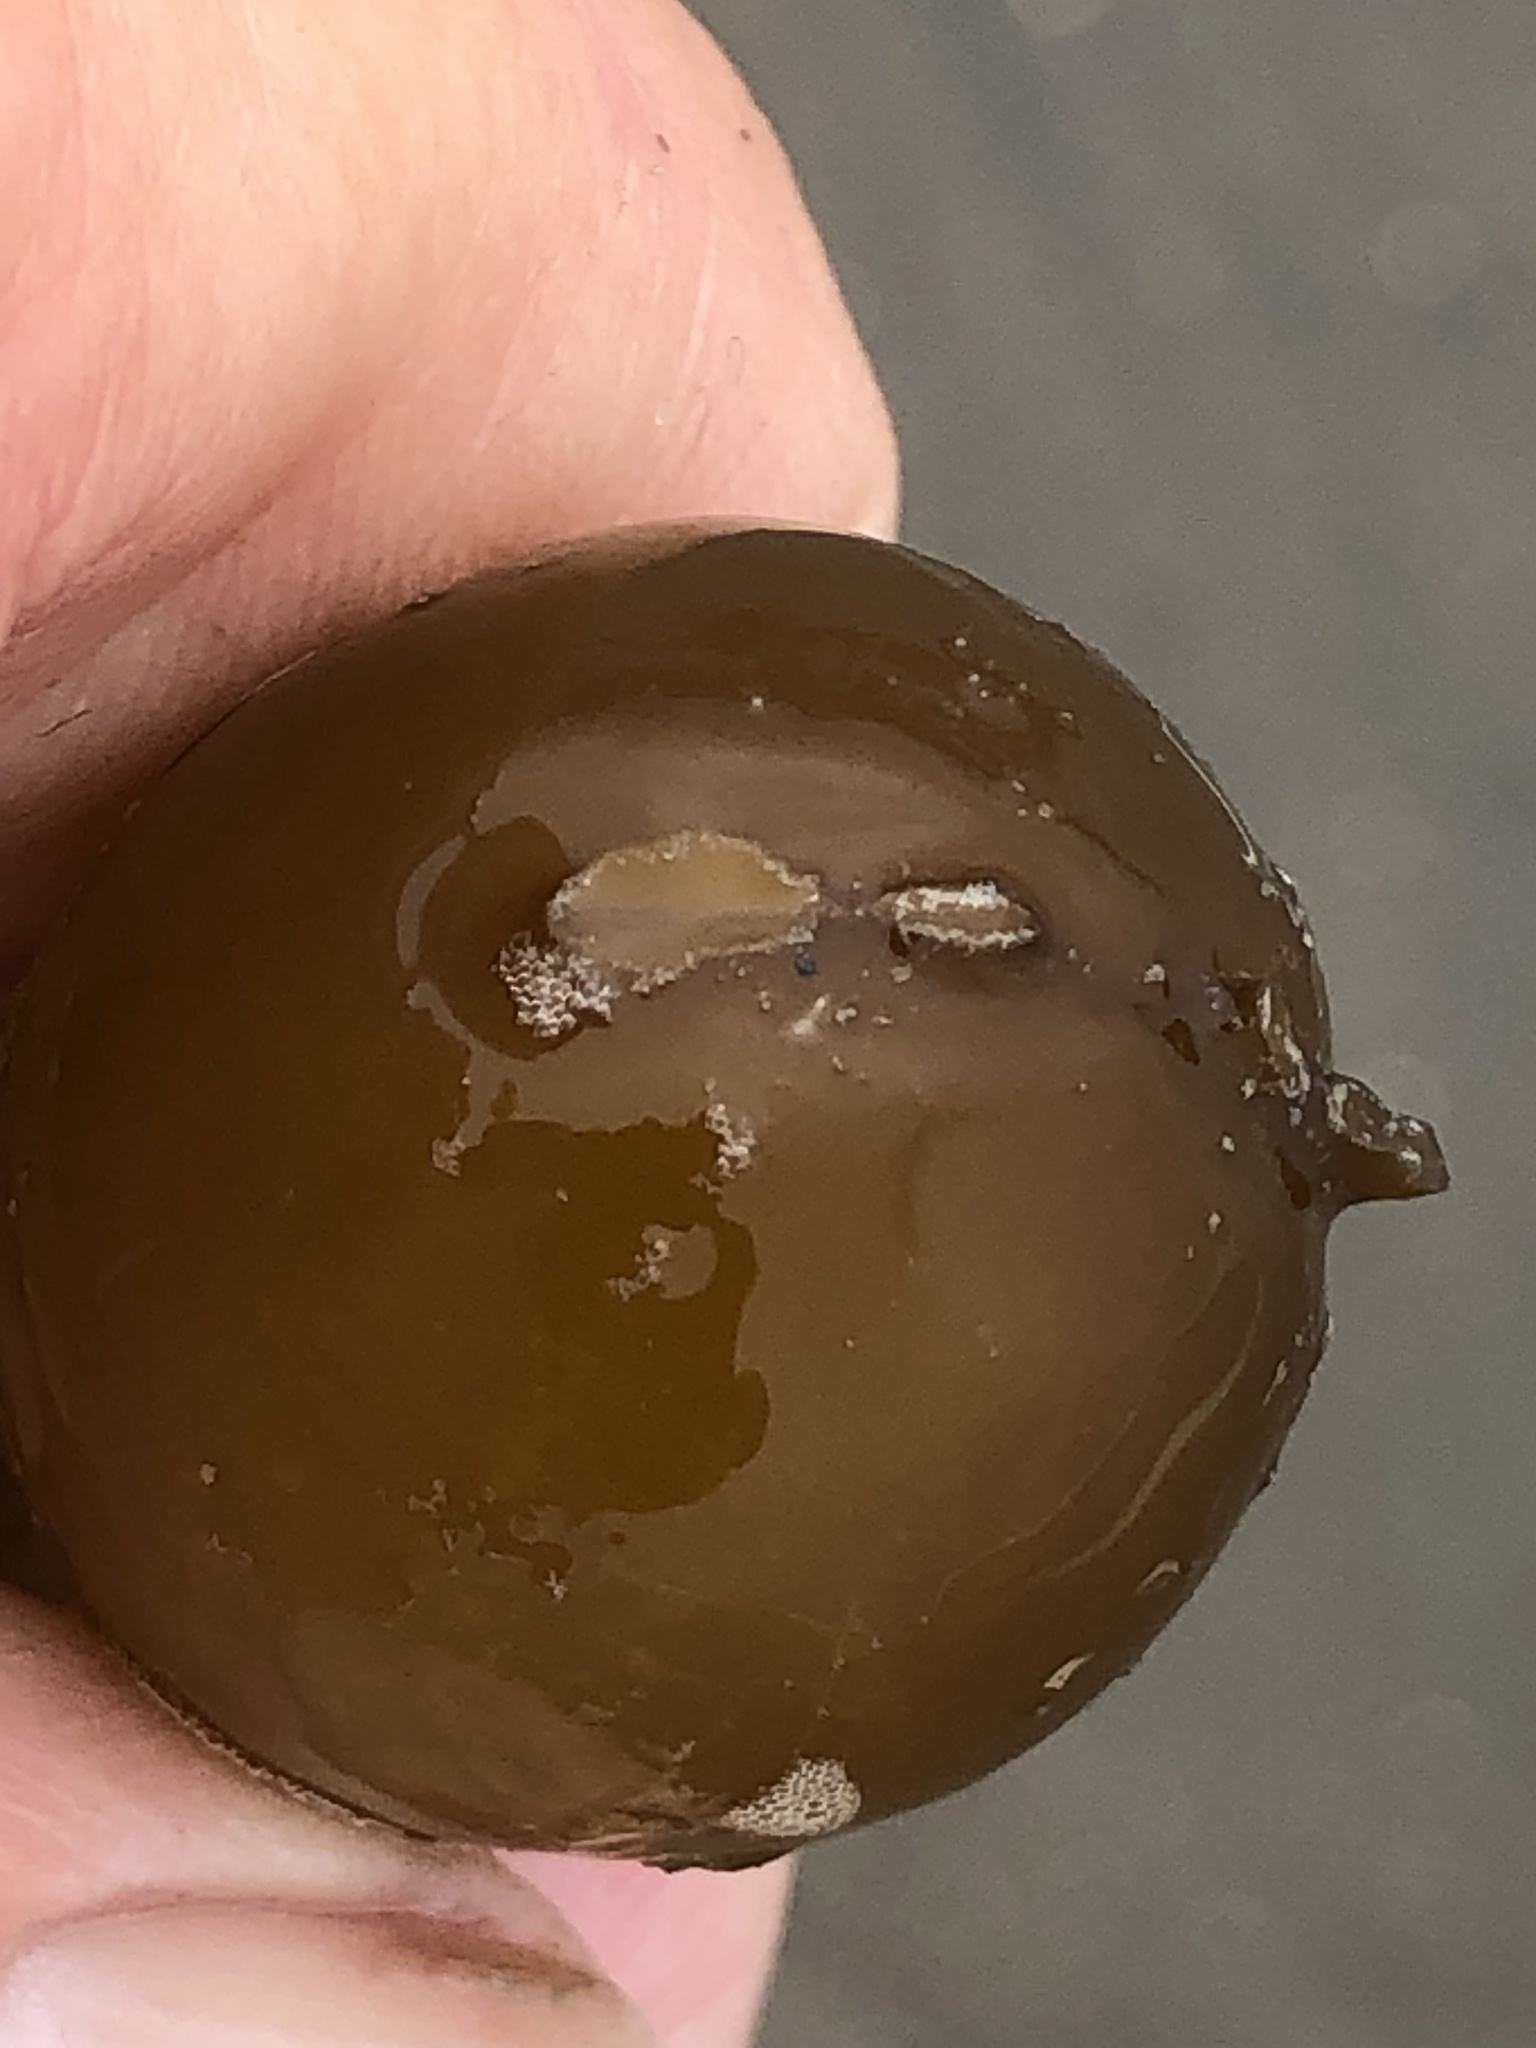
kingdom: Chromista
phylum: Ochrophyta
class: Phaeophyceae
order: Laminariales
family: Laminariaceae
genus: Nereocystis
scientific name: Nereocystis luetkeana
